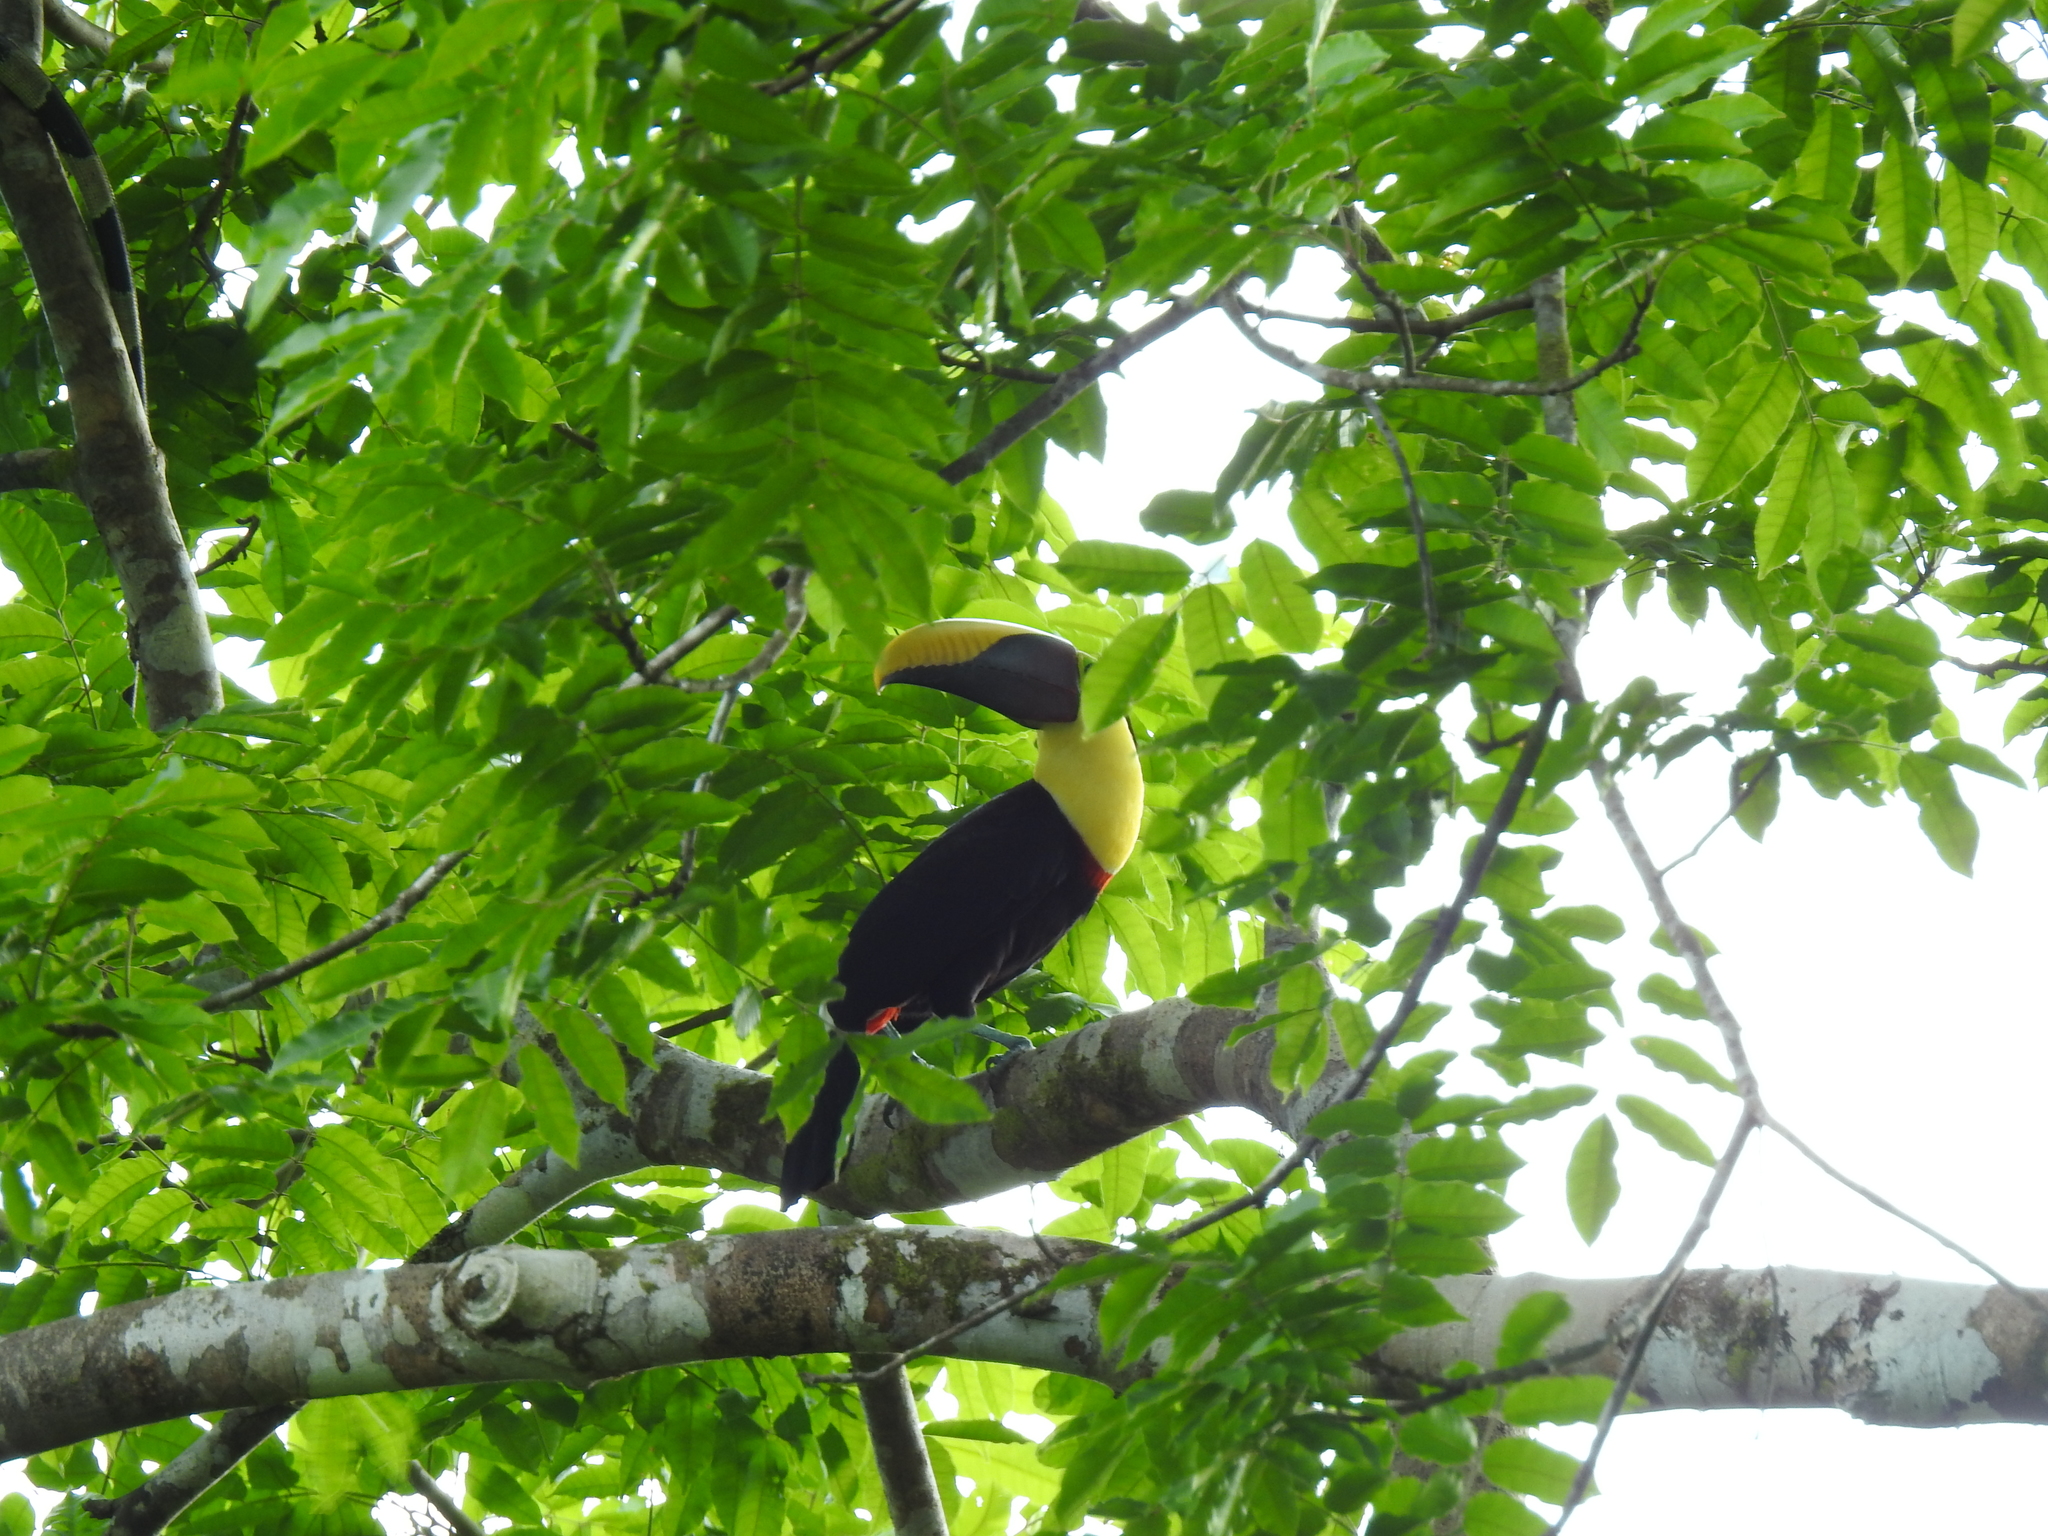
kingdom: Animalia
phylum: Chordata
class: Aves
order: Piciformes
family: Ramphastidae
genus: Ramphastos
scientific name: Ramphastos ambiguus
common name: Yellow-throated toucan
